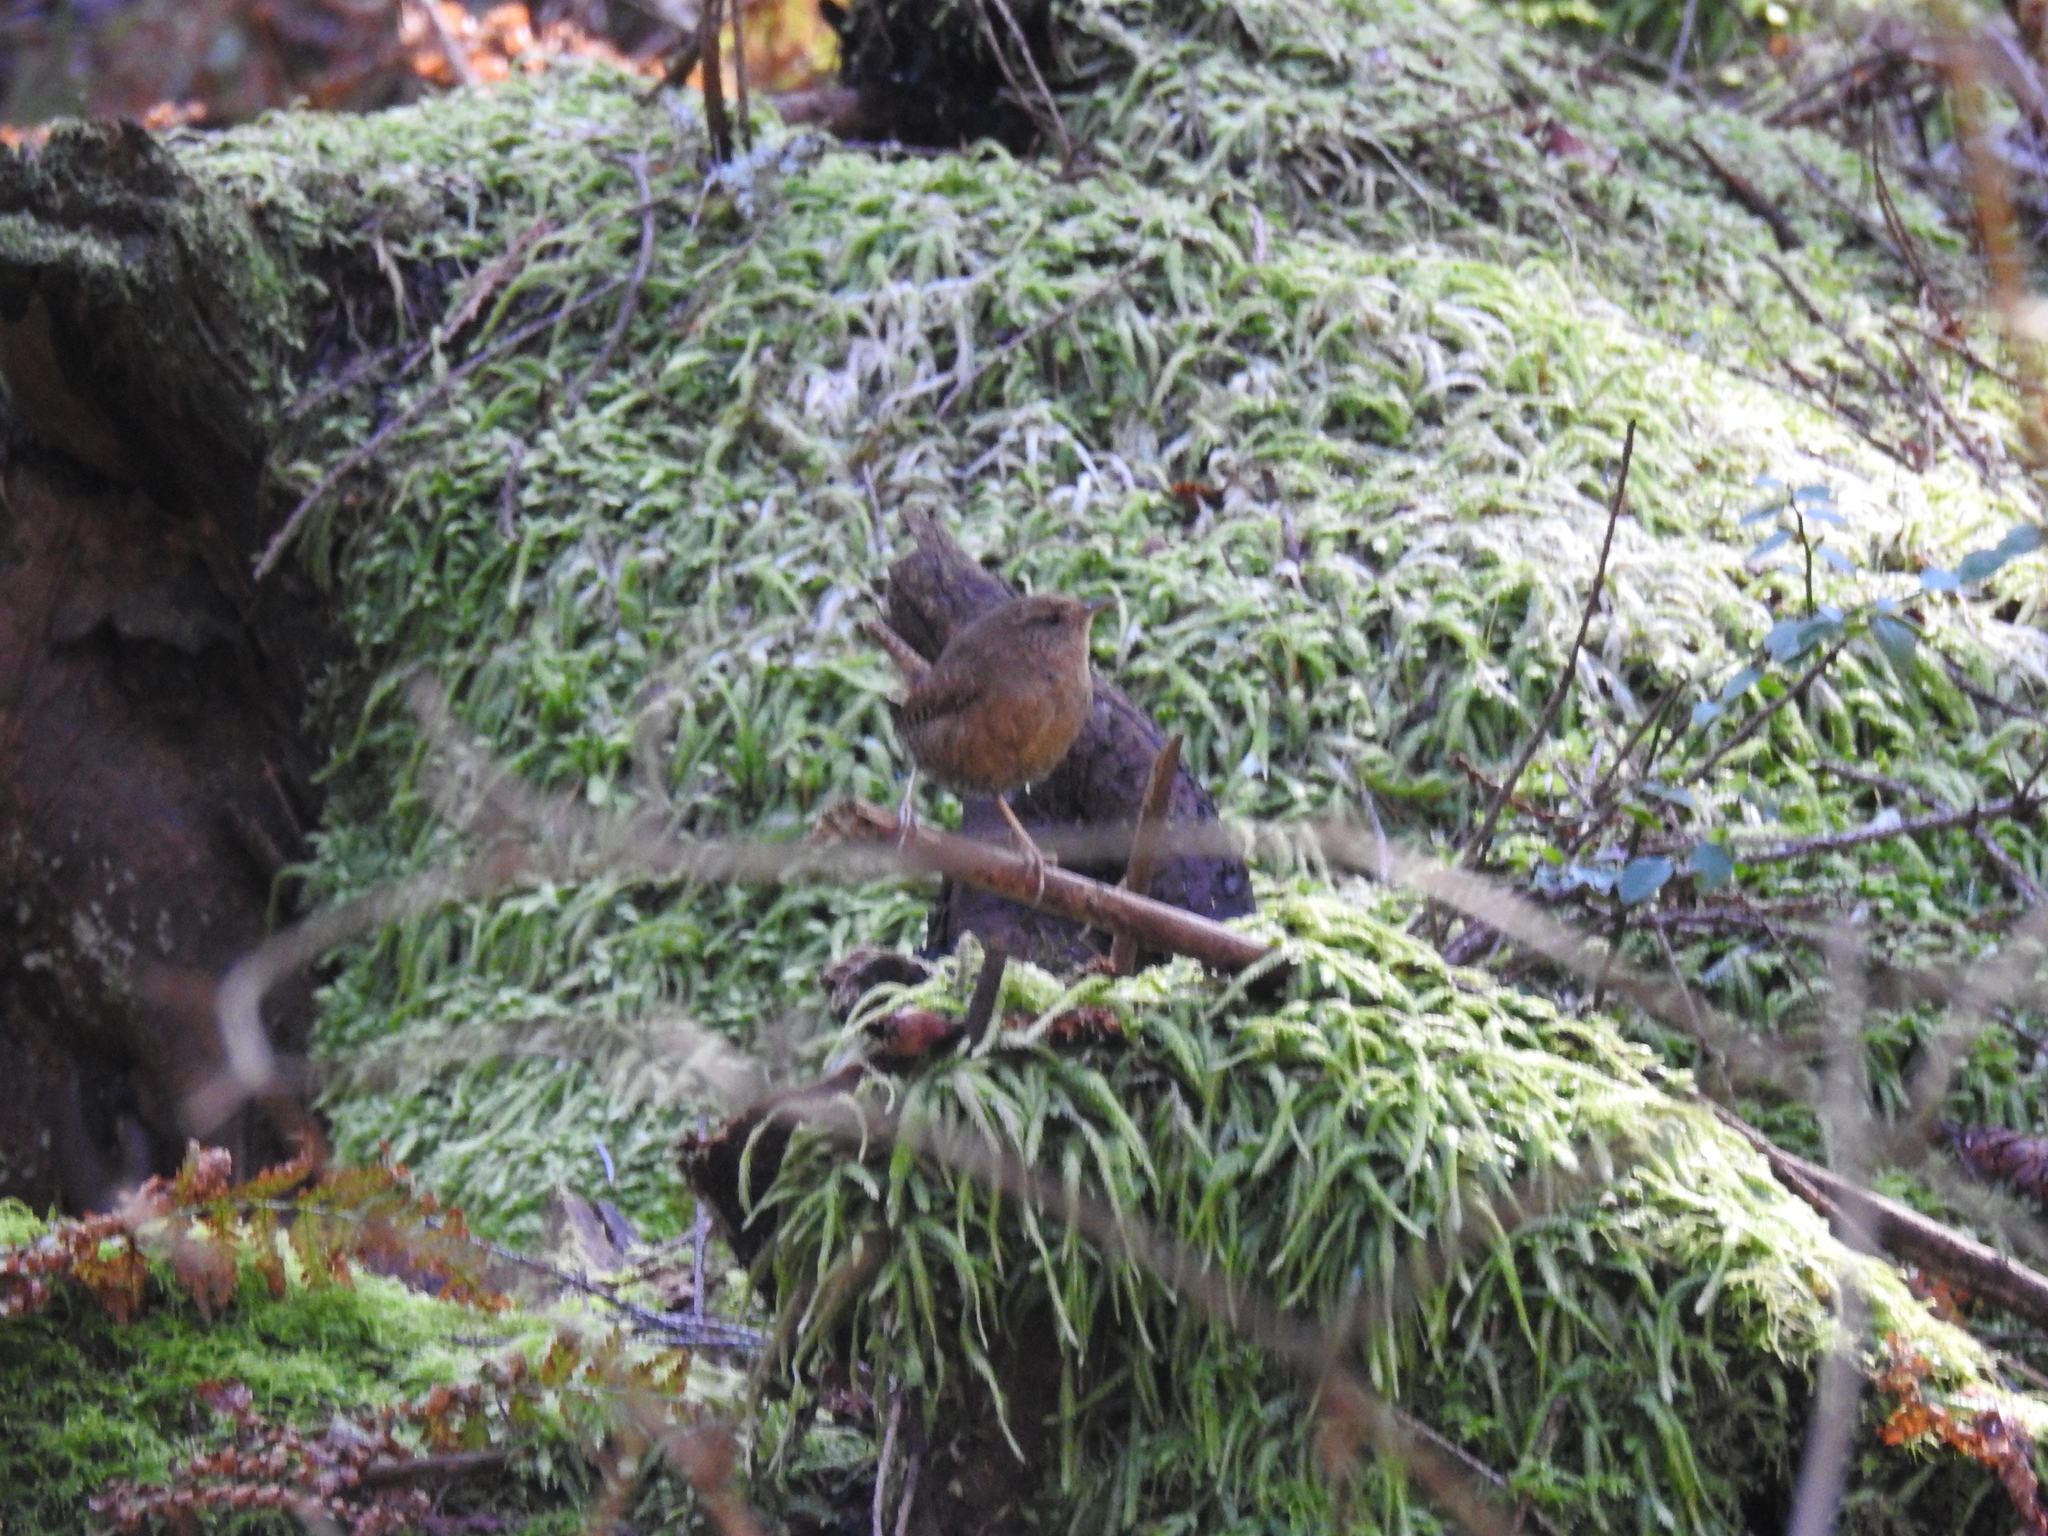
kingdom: Animalia
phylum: Chordata
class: Aves
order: Passeriformes
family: Troglodytidae
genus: Troglodytes
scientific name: Troglodytes pacificus
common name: Pacific wren
